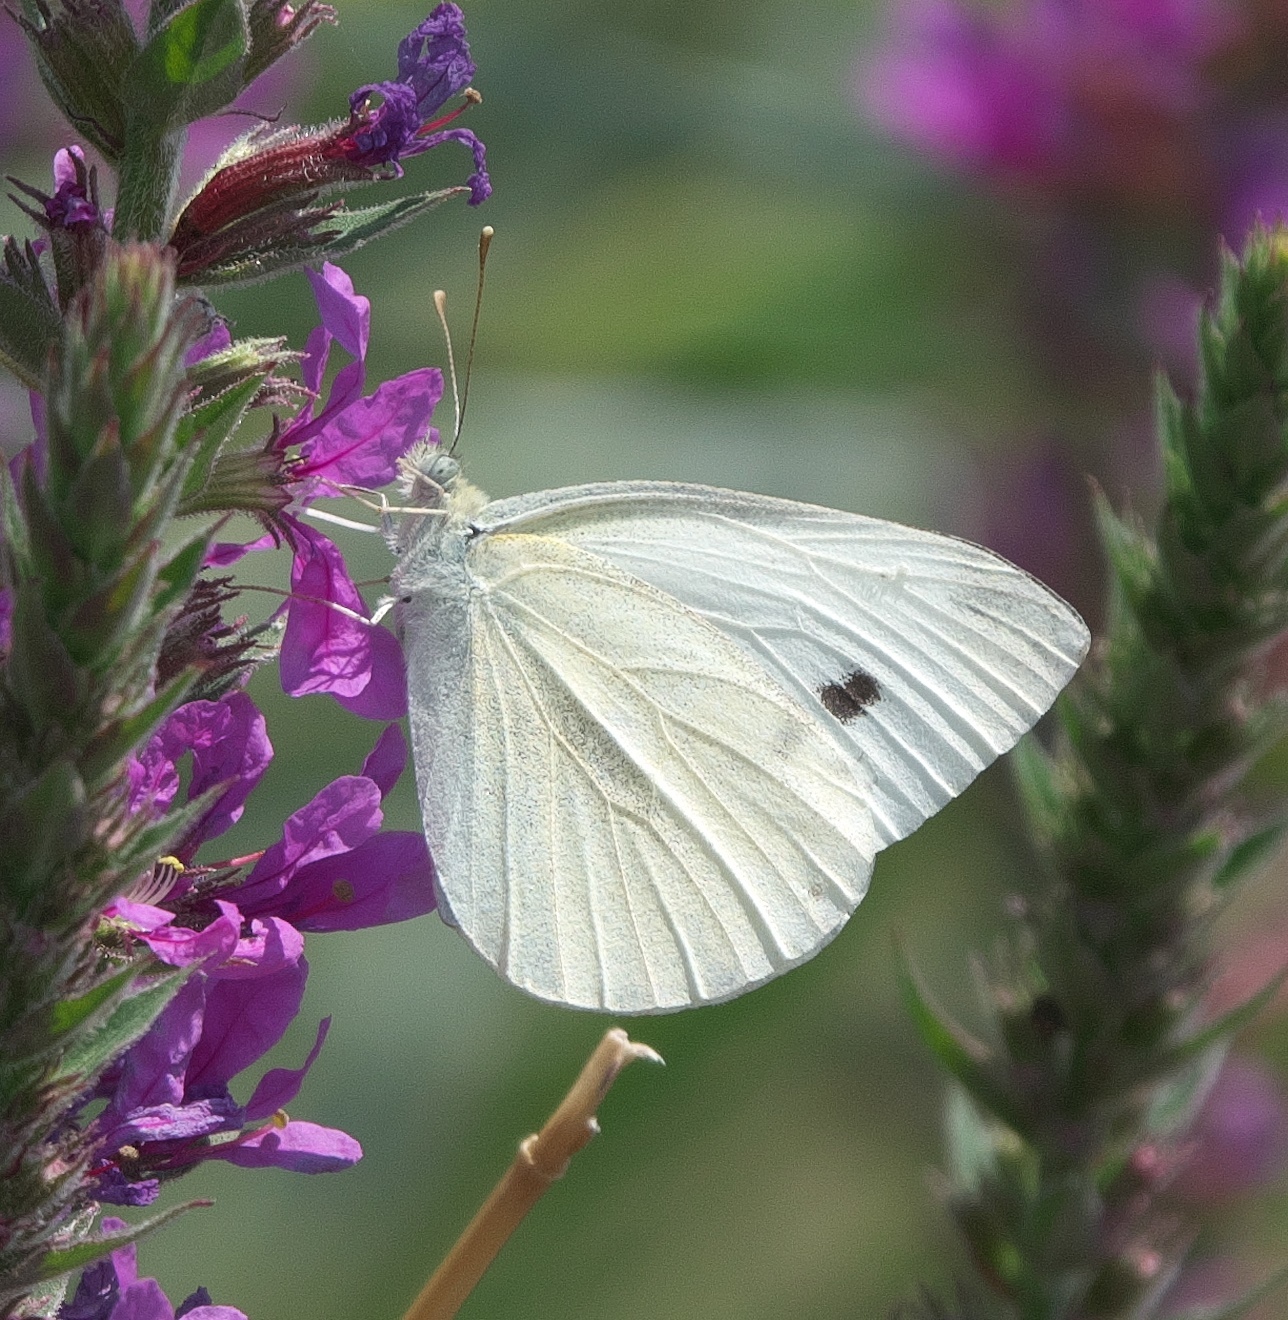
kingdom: Animalia
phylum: Arthropoda
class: Insecta
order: Lepidoptera
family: Pieridae
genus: Pieris
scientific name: Pieris rapae
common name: Small white
